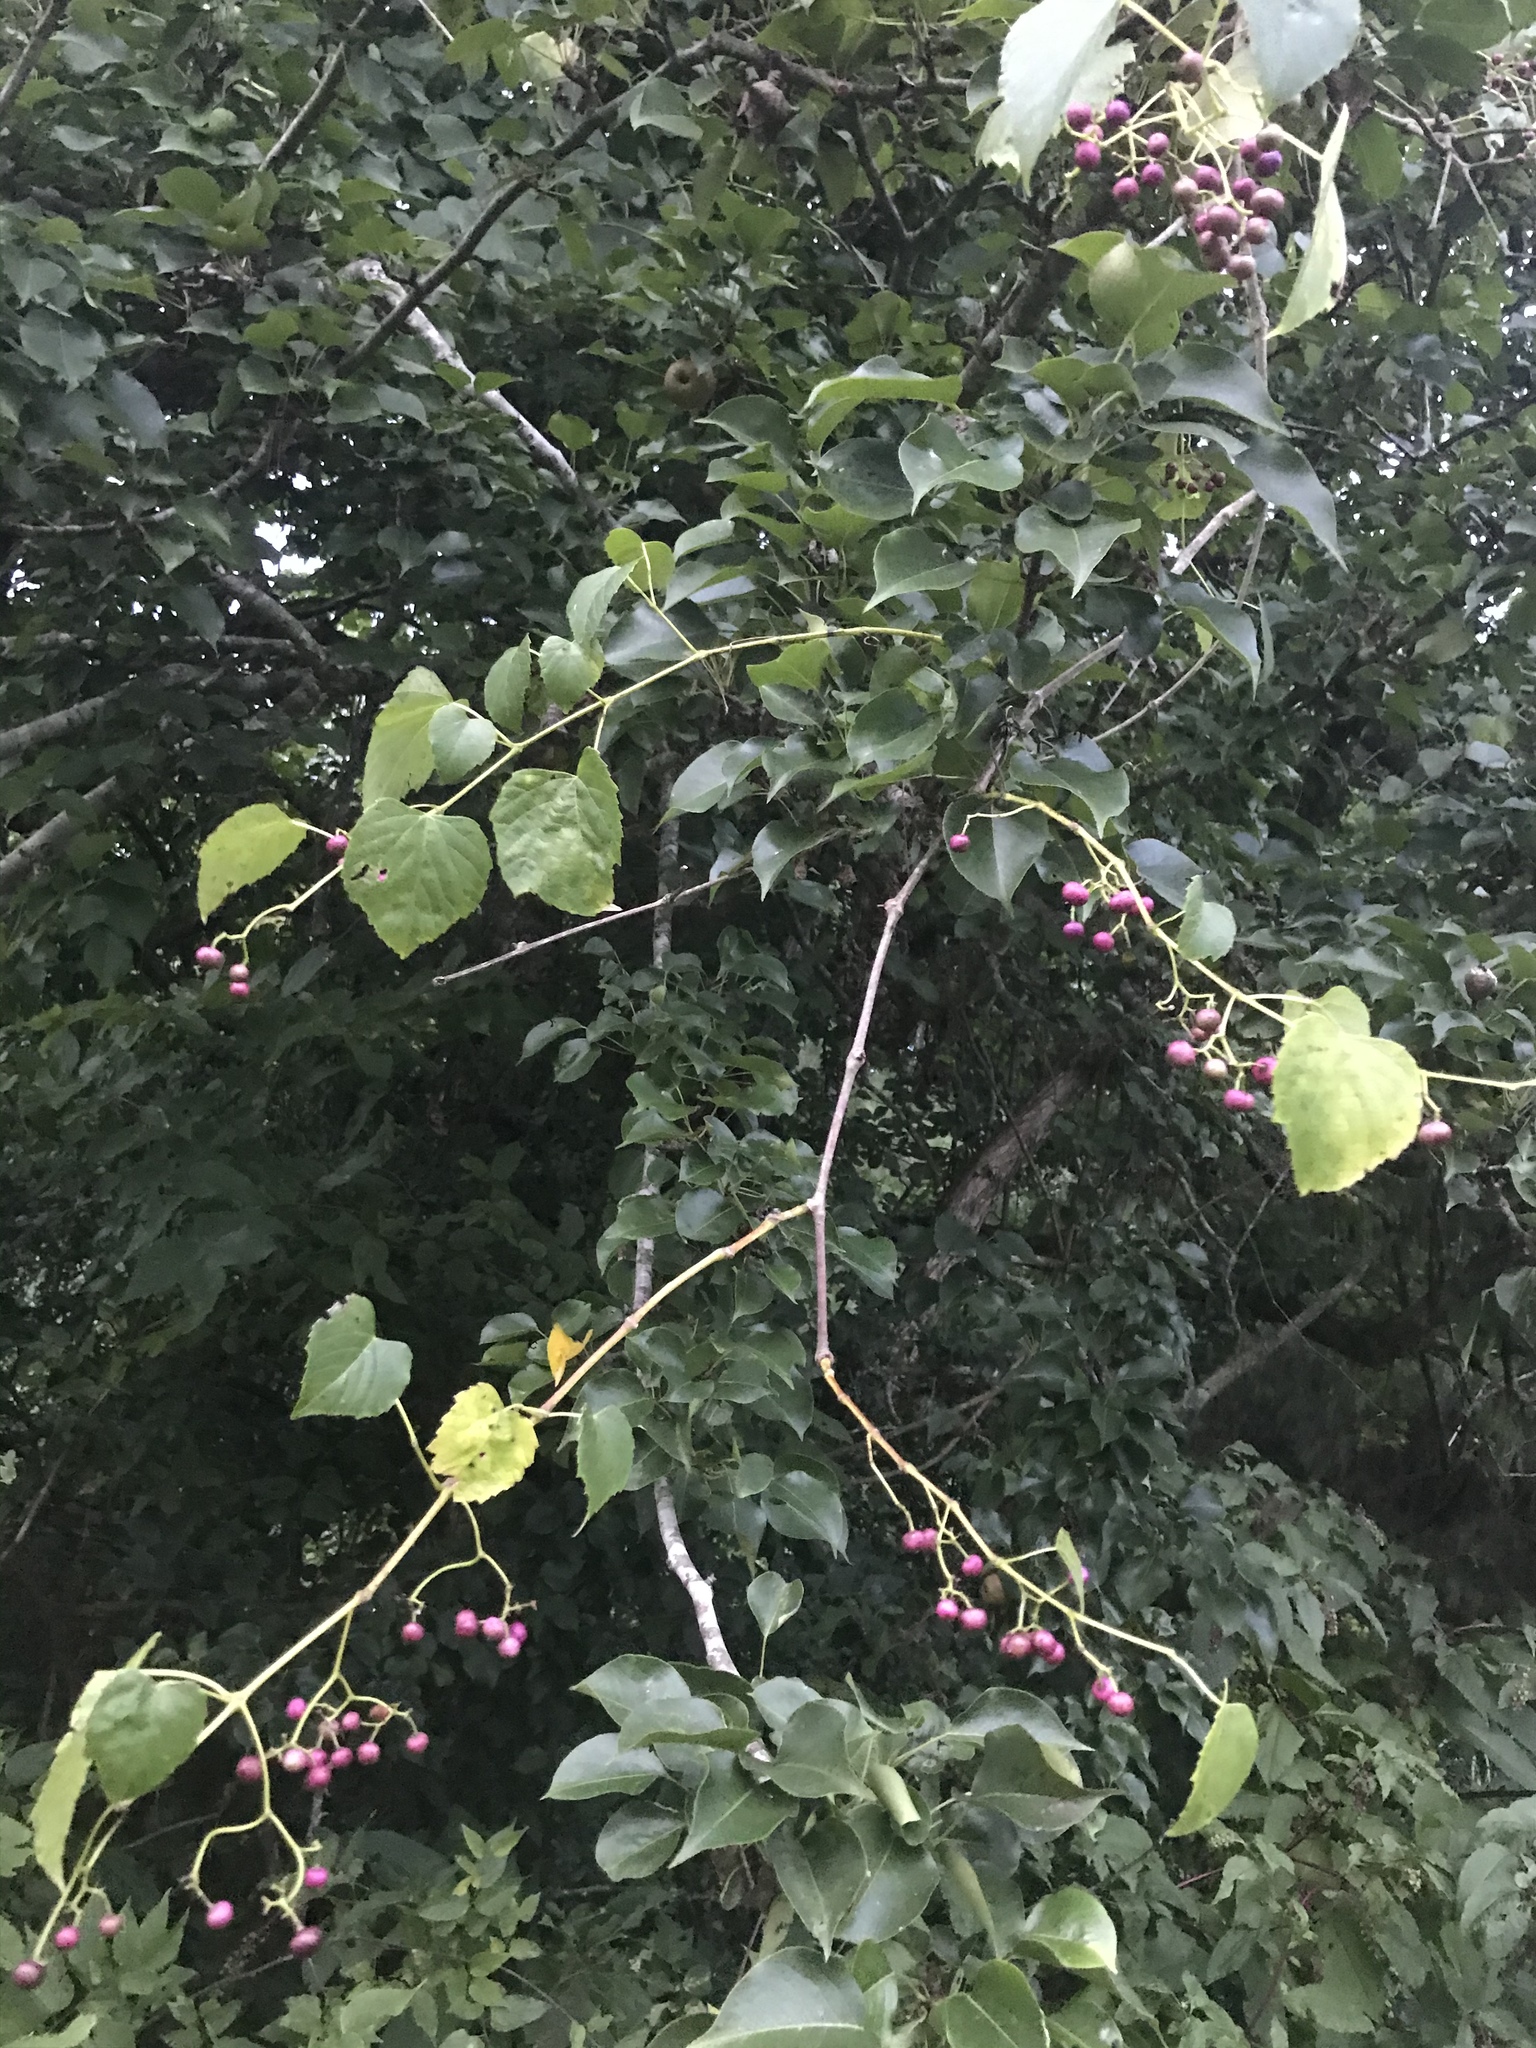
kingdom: Plantae
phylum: Tracheophyta
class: Magnoliopsida
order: Vitales
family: Vitaceae
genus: Ampelopsis
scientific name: Ampelopsis cordata
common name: Heart-leaf ampelopsis
